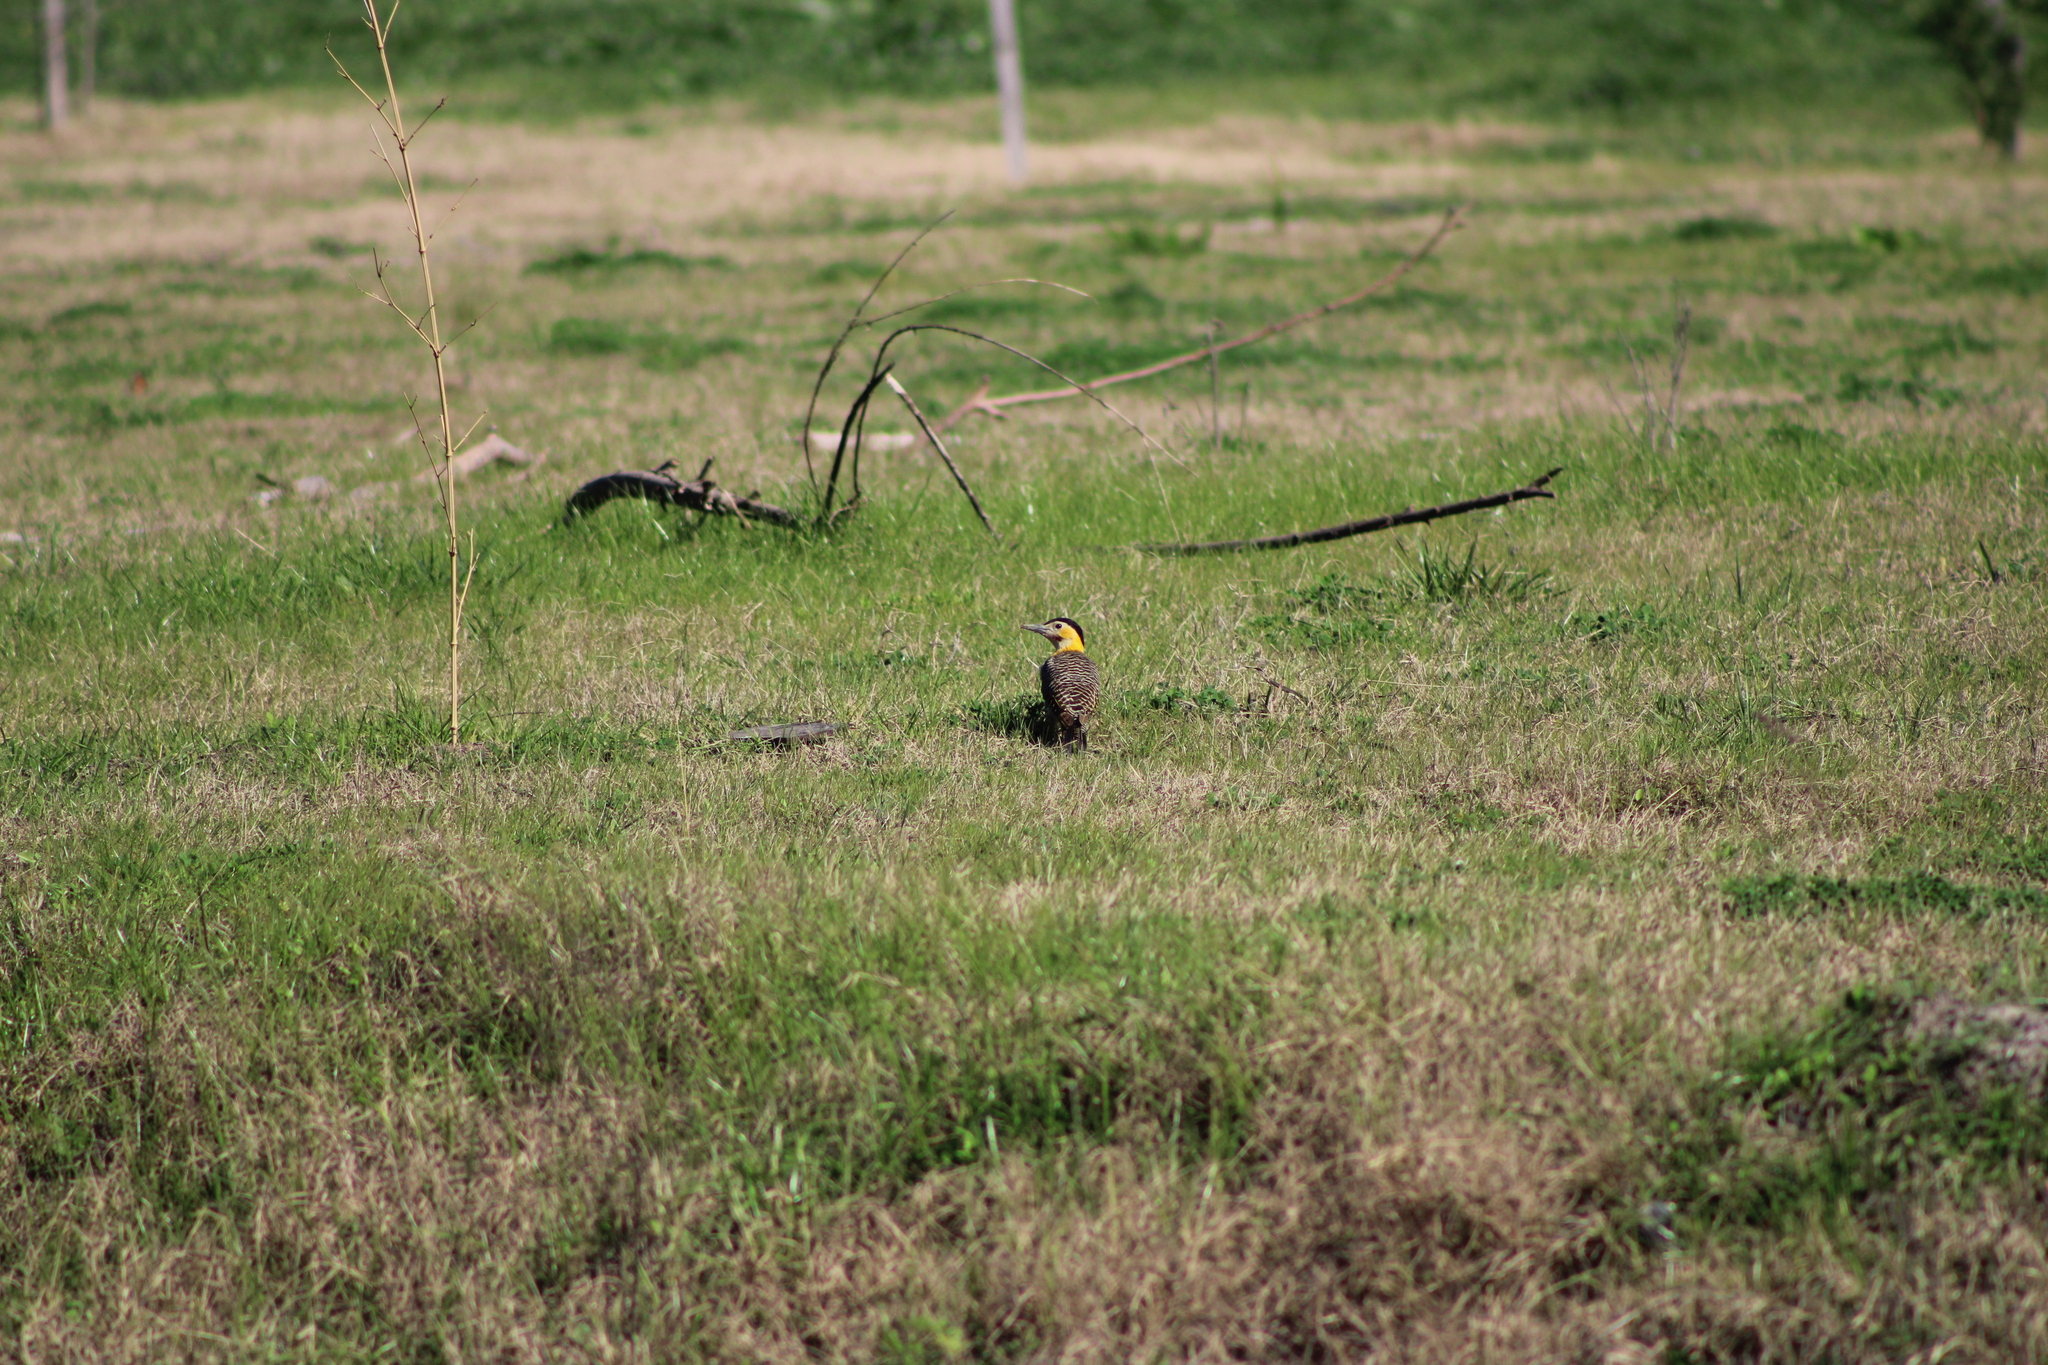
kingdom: Animalia
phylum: Chordata
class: Aves
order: Piciformes
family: Picidae
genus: Colaptes
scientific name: Colaptes campestris
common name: Campo flicker
